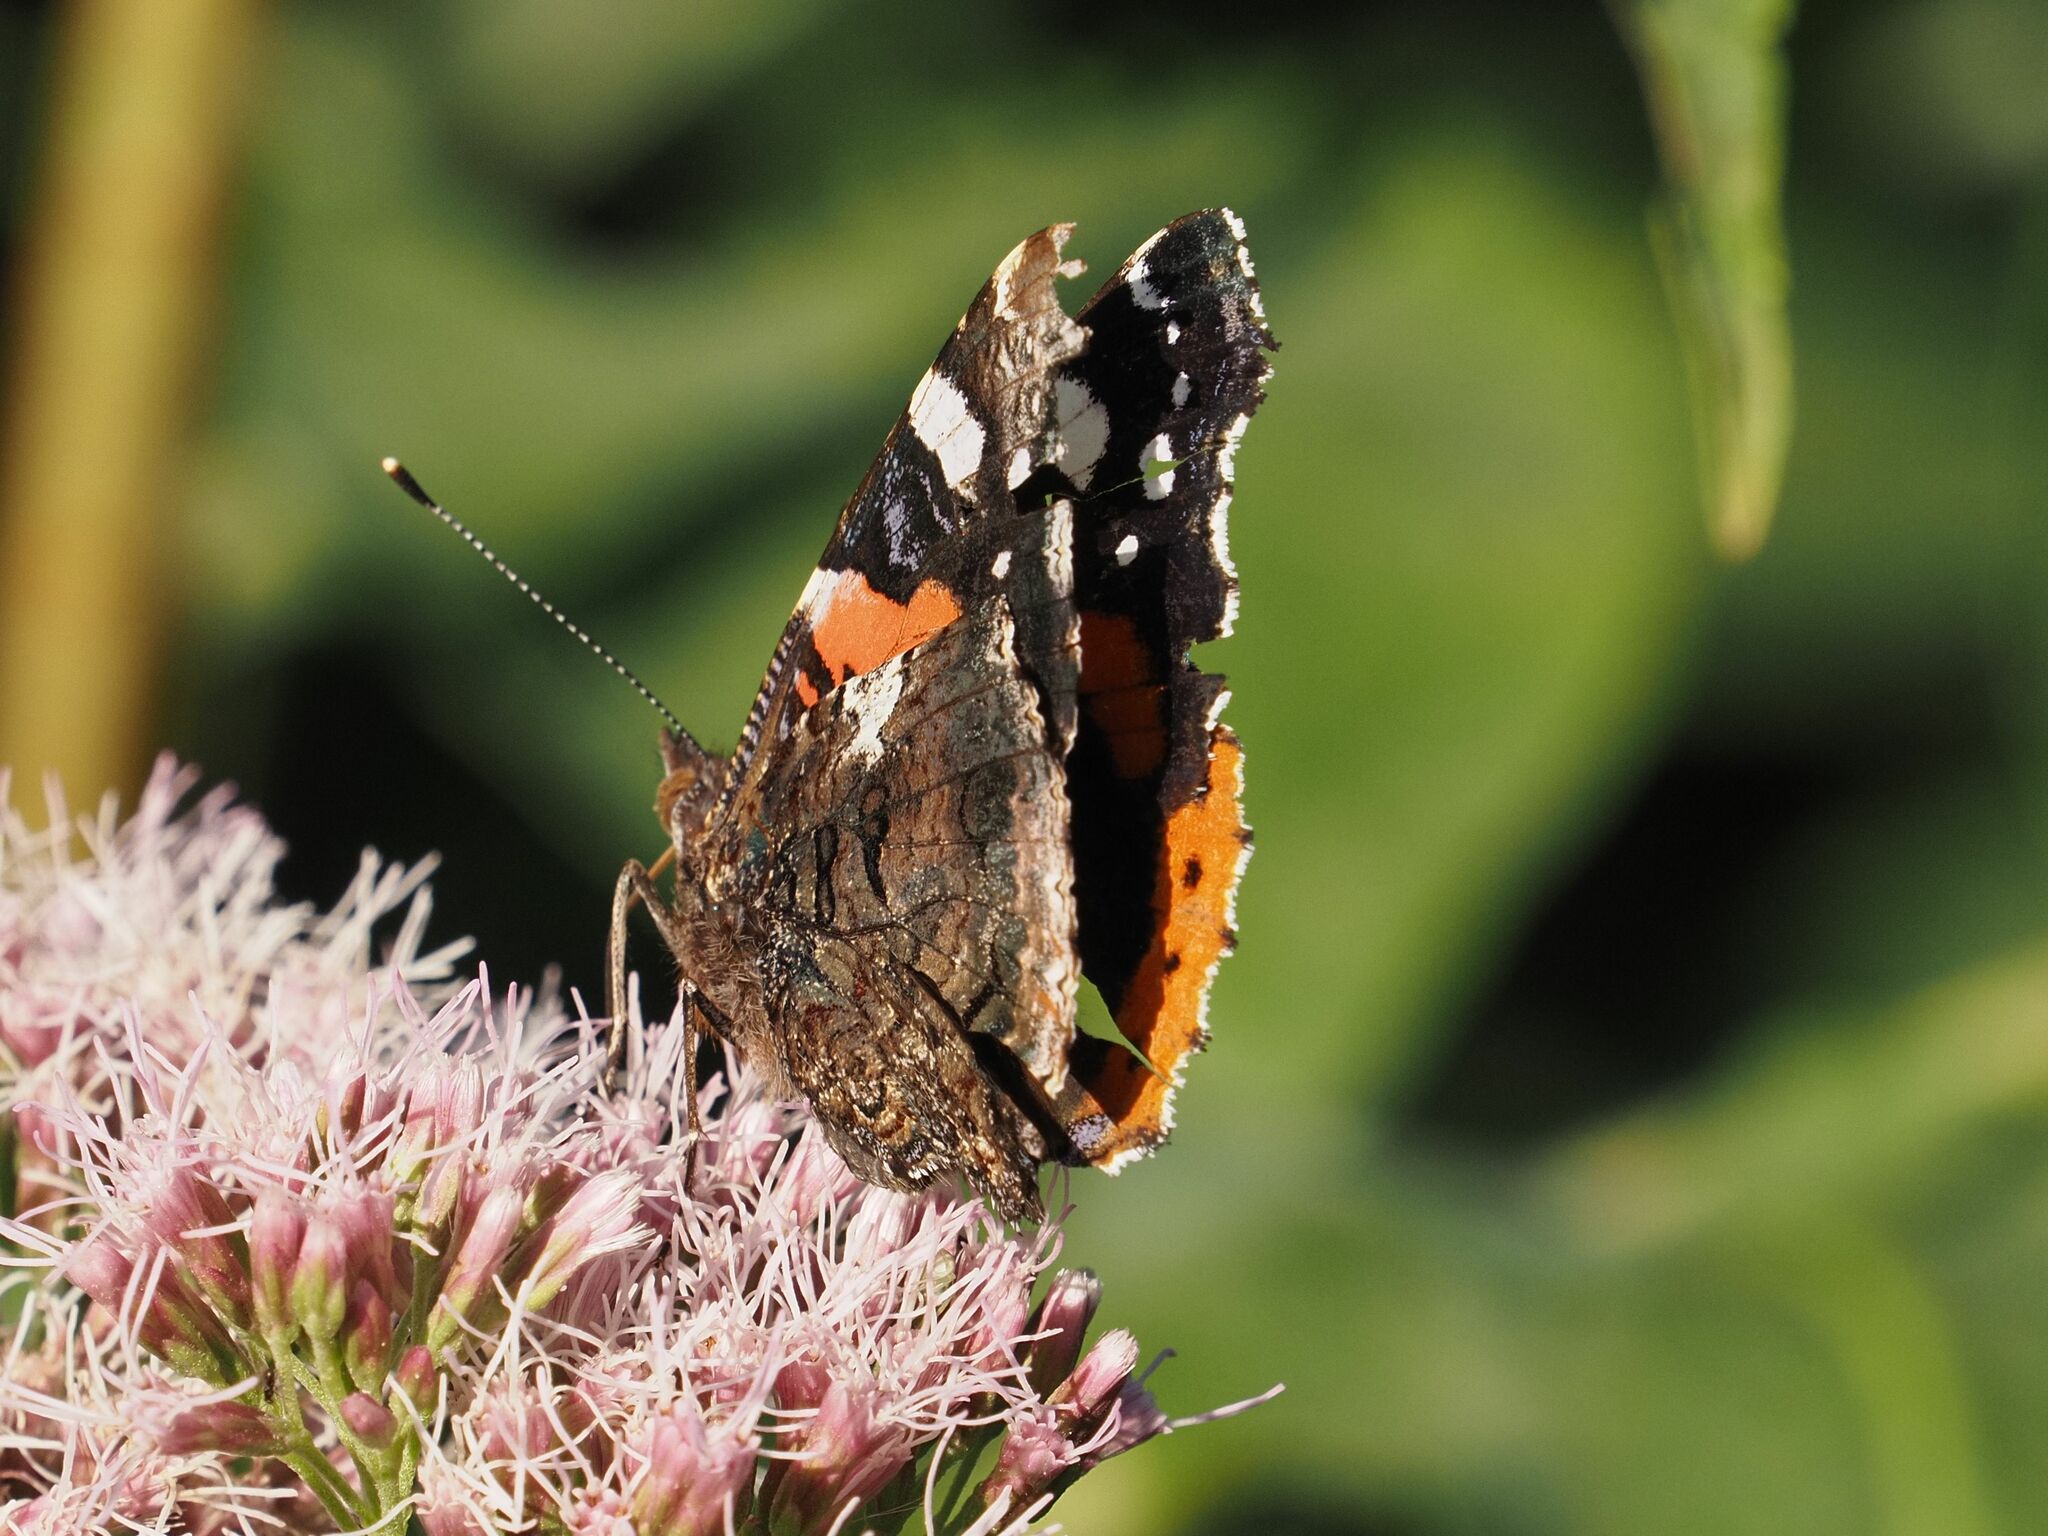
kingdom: Animalia
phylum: Arthropoda
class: Insecta
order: Lepidoptera
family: Nymphalidae
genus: Vanessa
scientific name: Vanessa atalanta
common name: Red admiral
